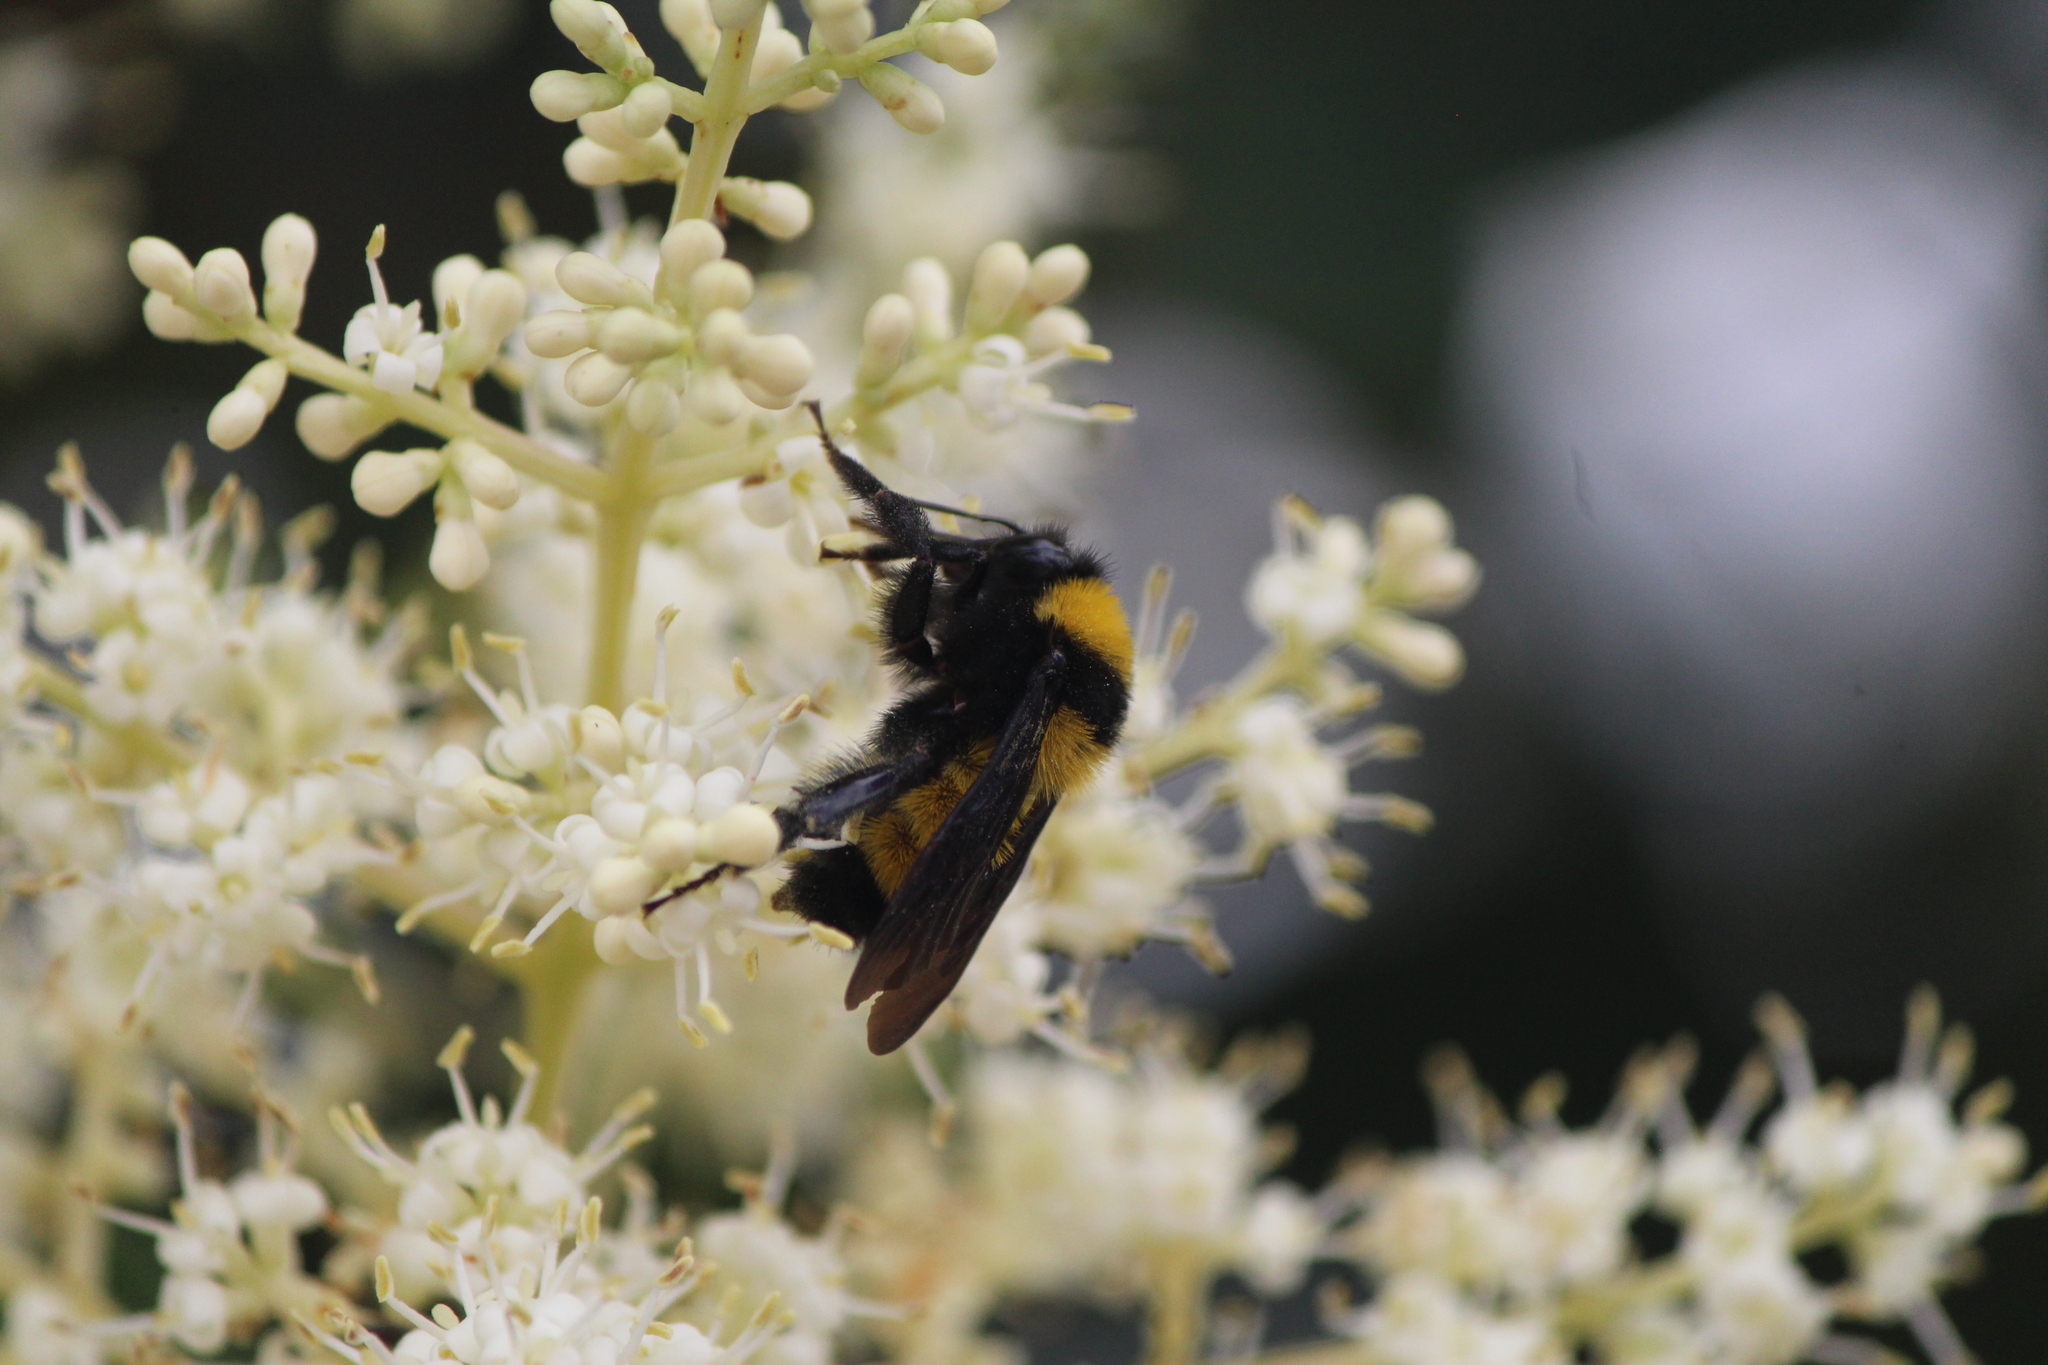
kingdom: Animalia
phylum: Arthropoda
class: Insecta
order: Hymenoptera
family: Apidae
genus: Bombus
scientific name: Bombus sonorus
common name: Sonoran bumble bee
